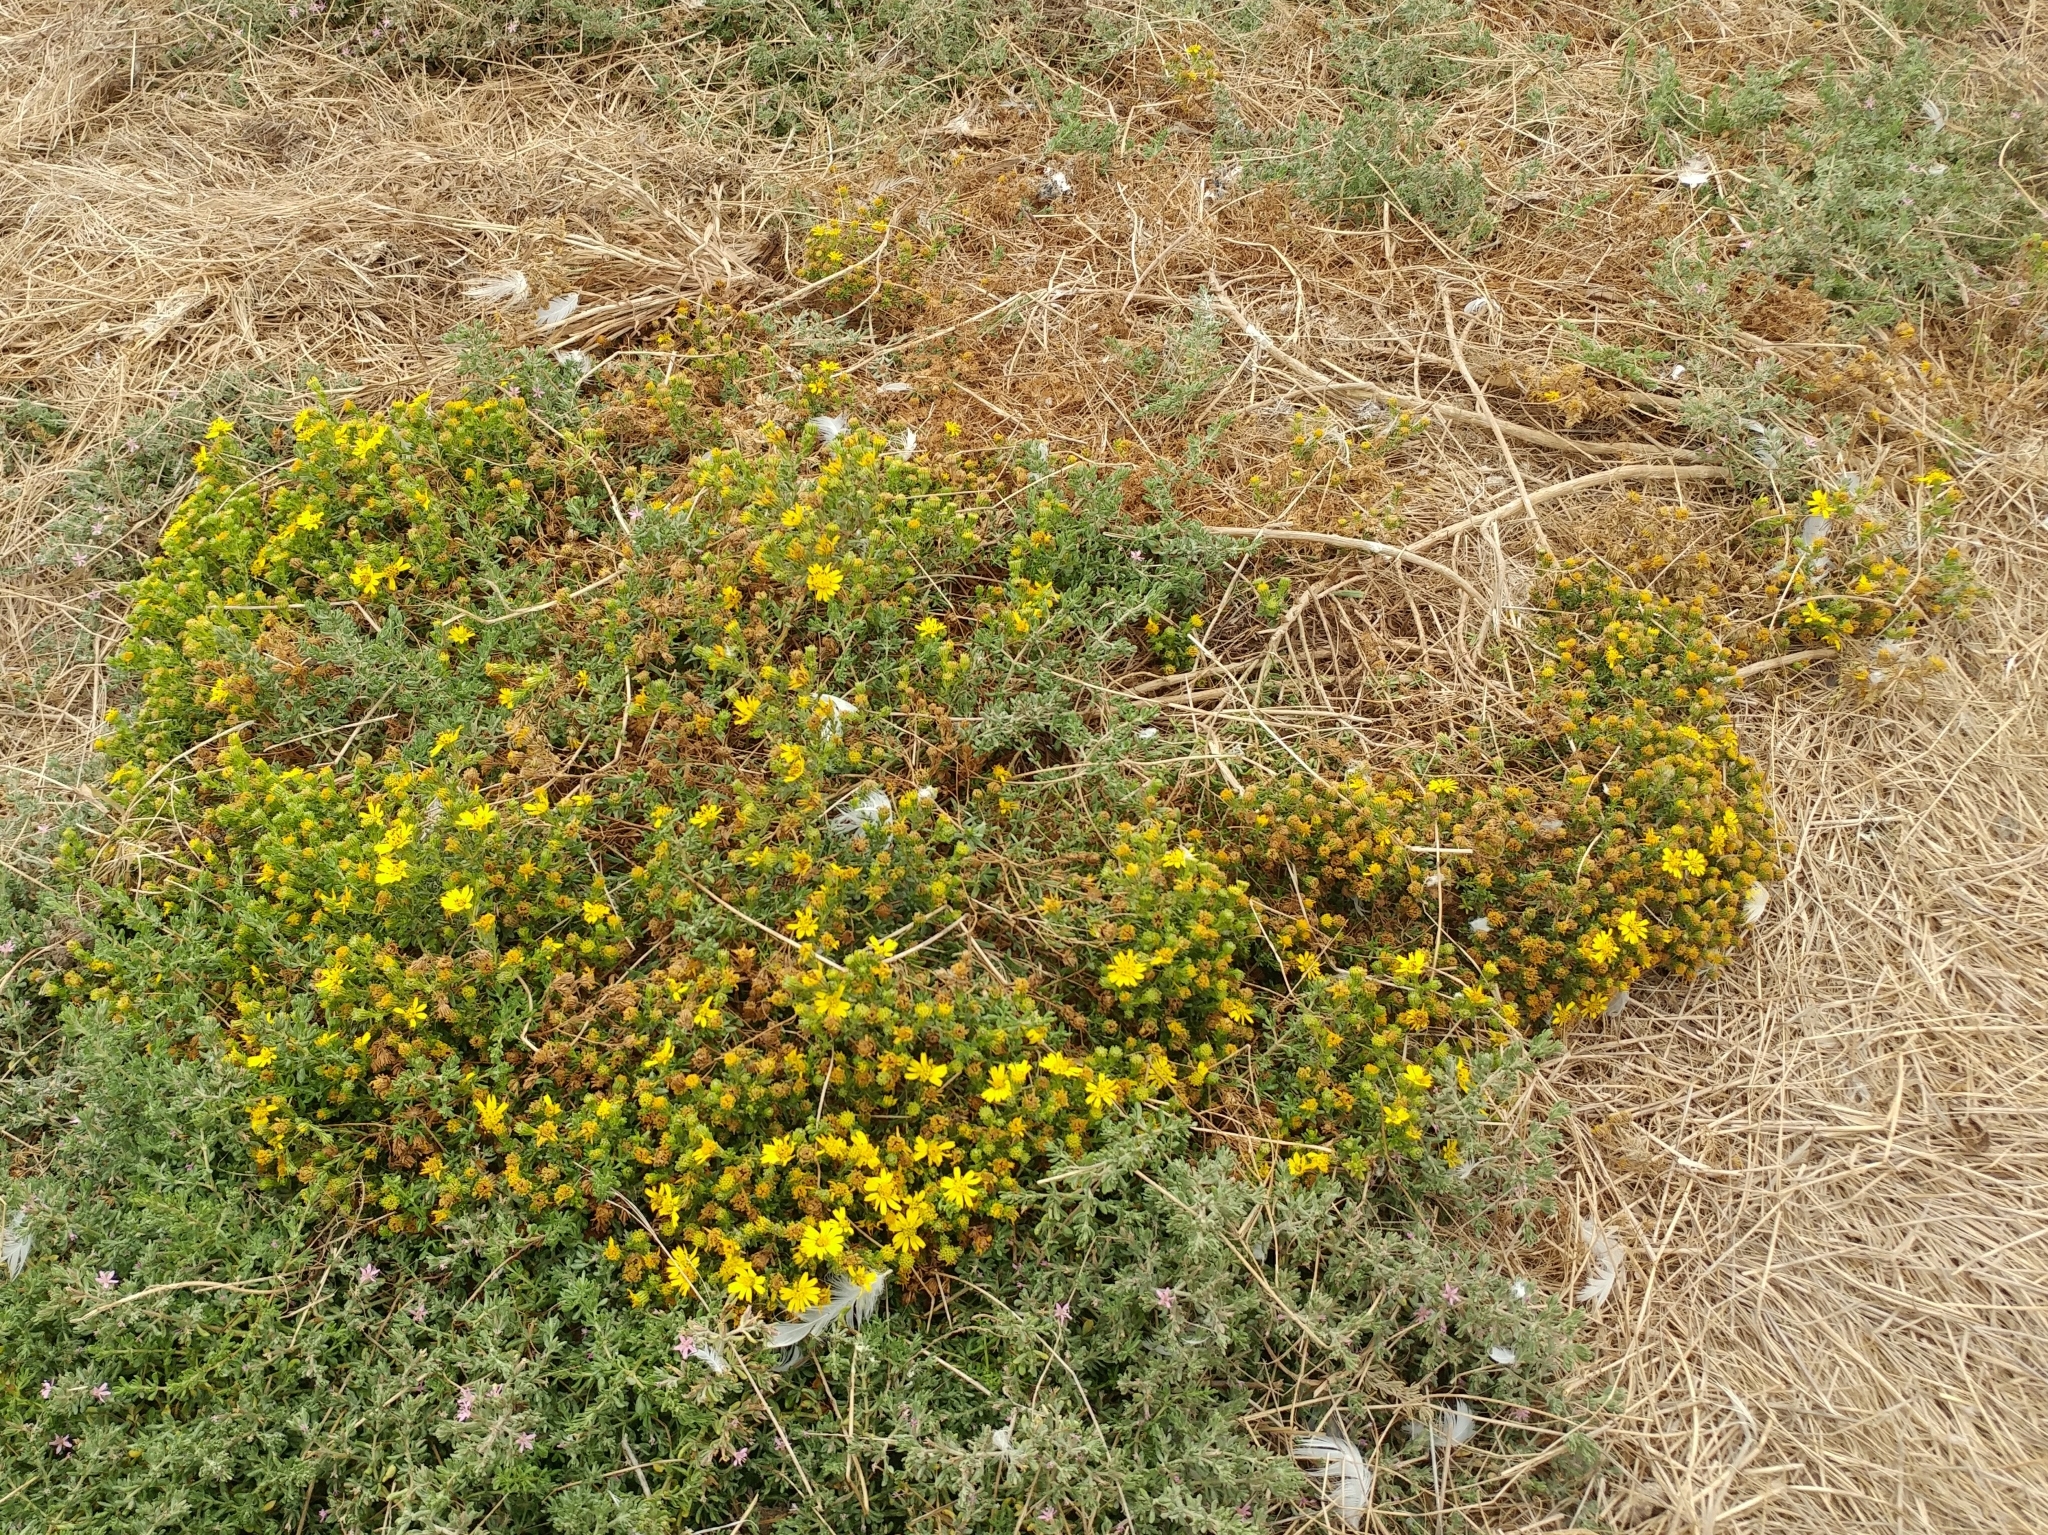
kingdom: Plantae
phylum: Tracheophyta
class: Magnoliopsida
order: Asterales
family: Asteraceae
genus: Deinandra
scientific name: Deinandra clementina
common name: Island tarplant
